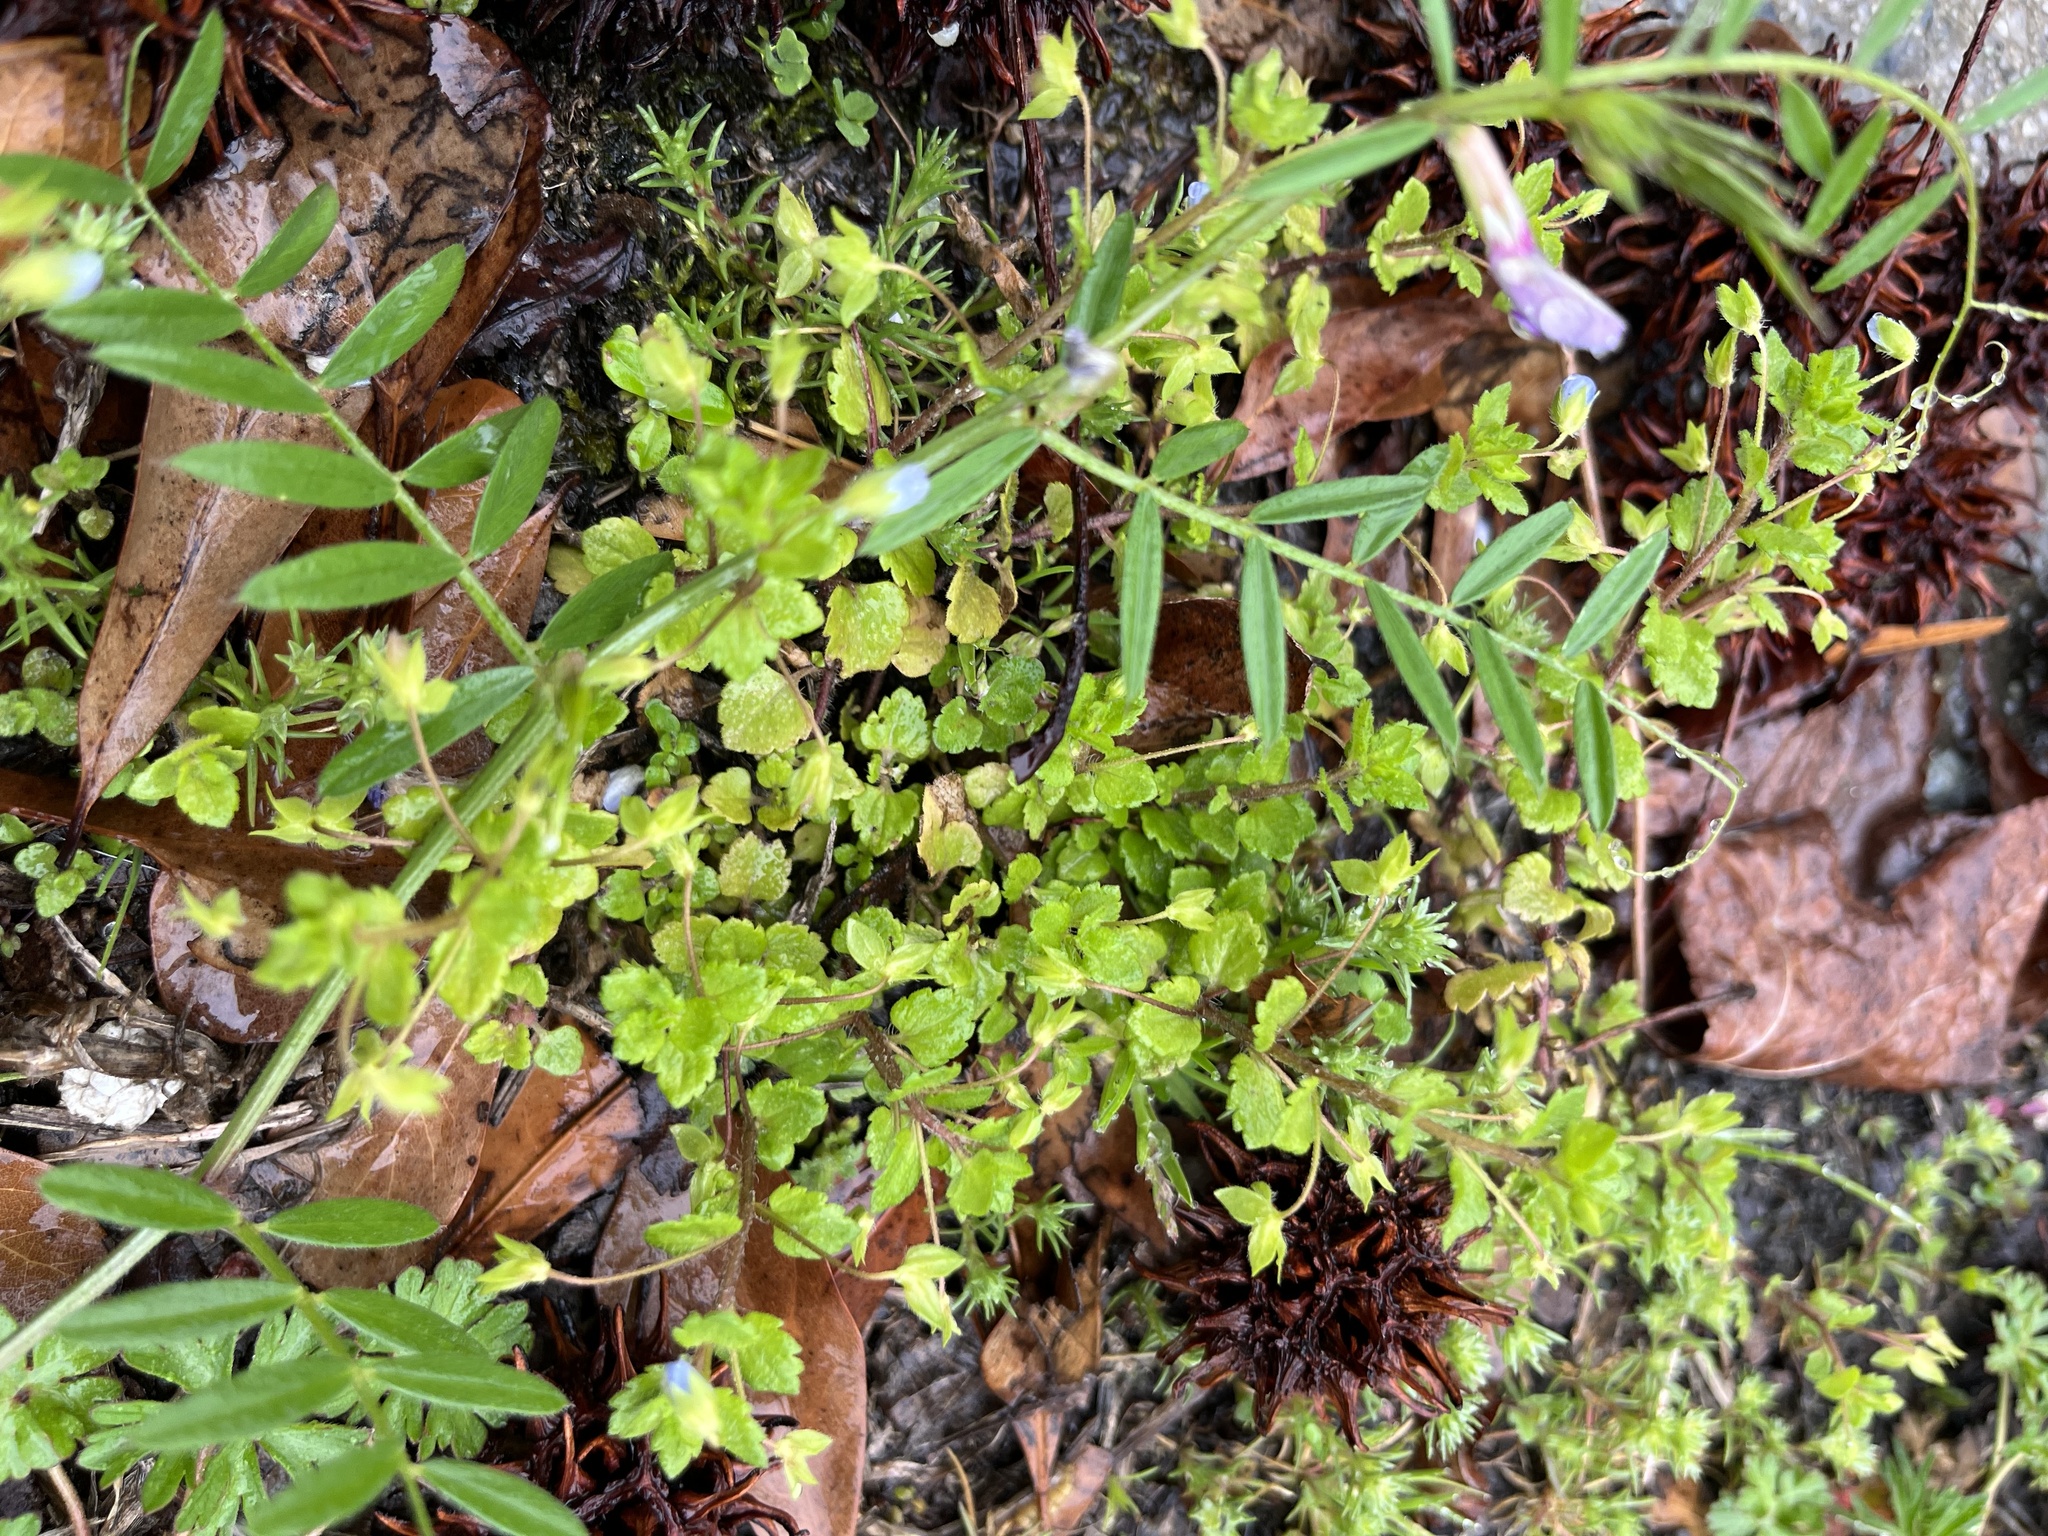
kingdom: Plantae
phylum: Tracheophyta
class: Magnoliopsida
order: Fabales
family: Fabaceae
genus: Vicia
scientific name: Vicia sativa
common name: Garden vetch
